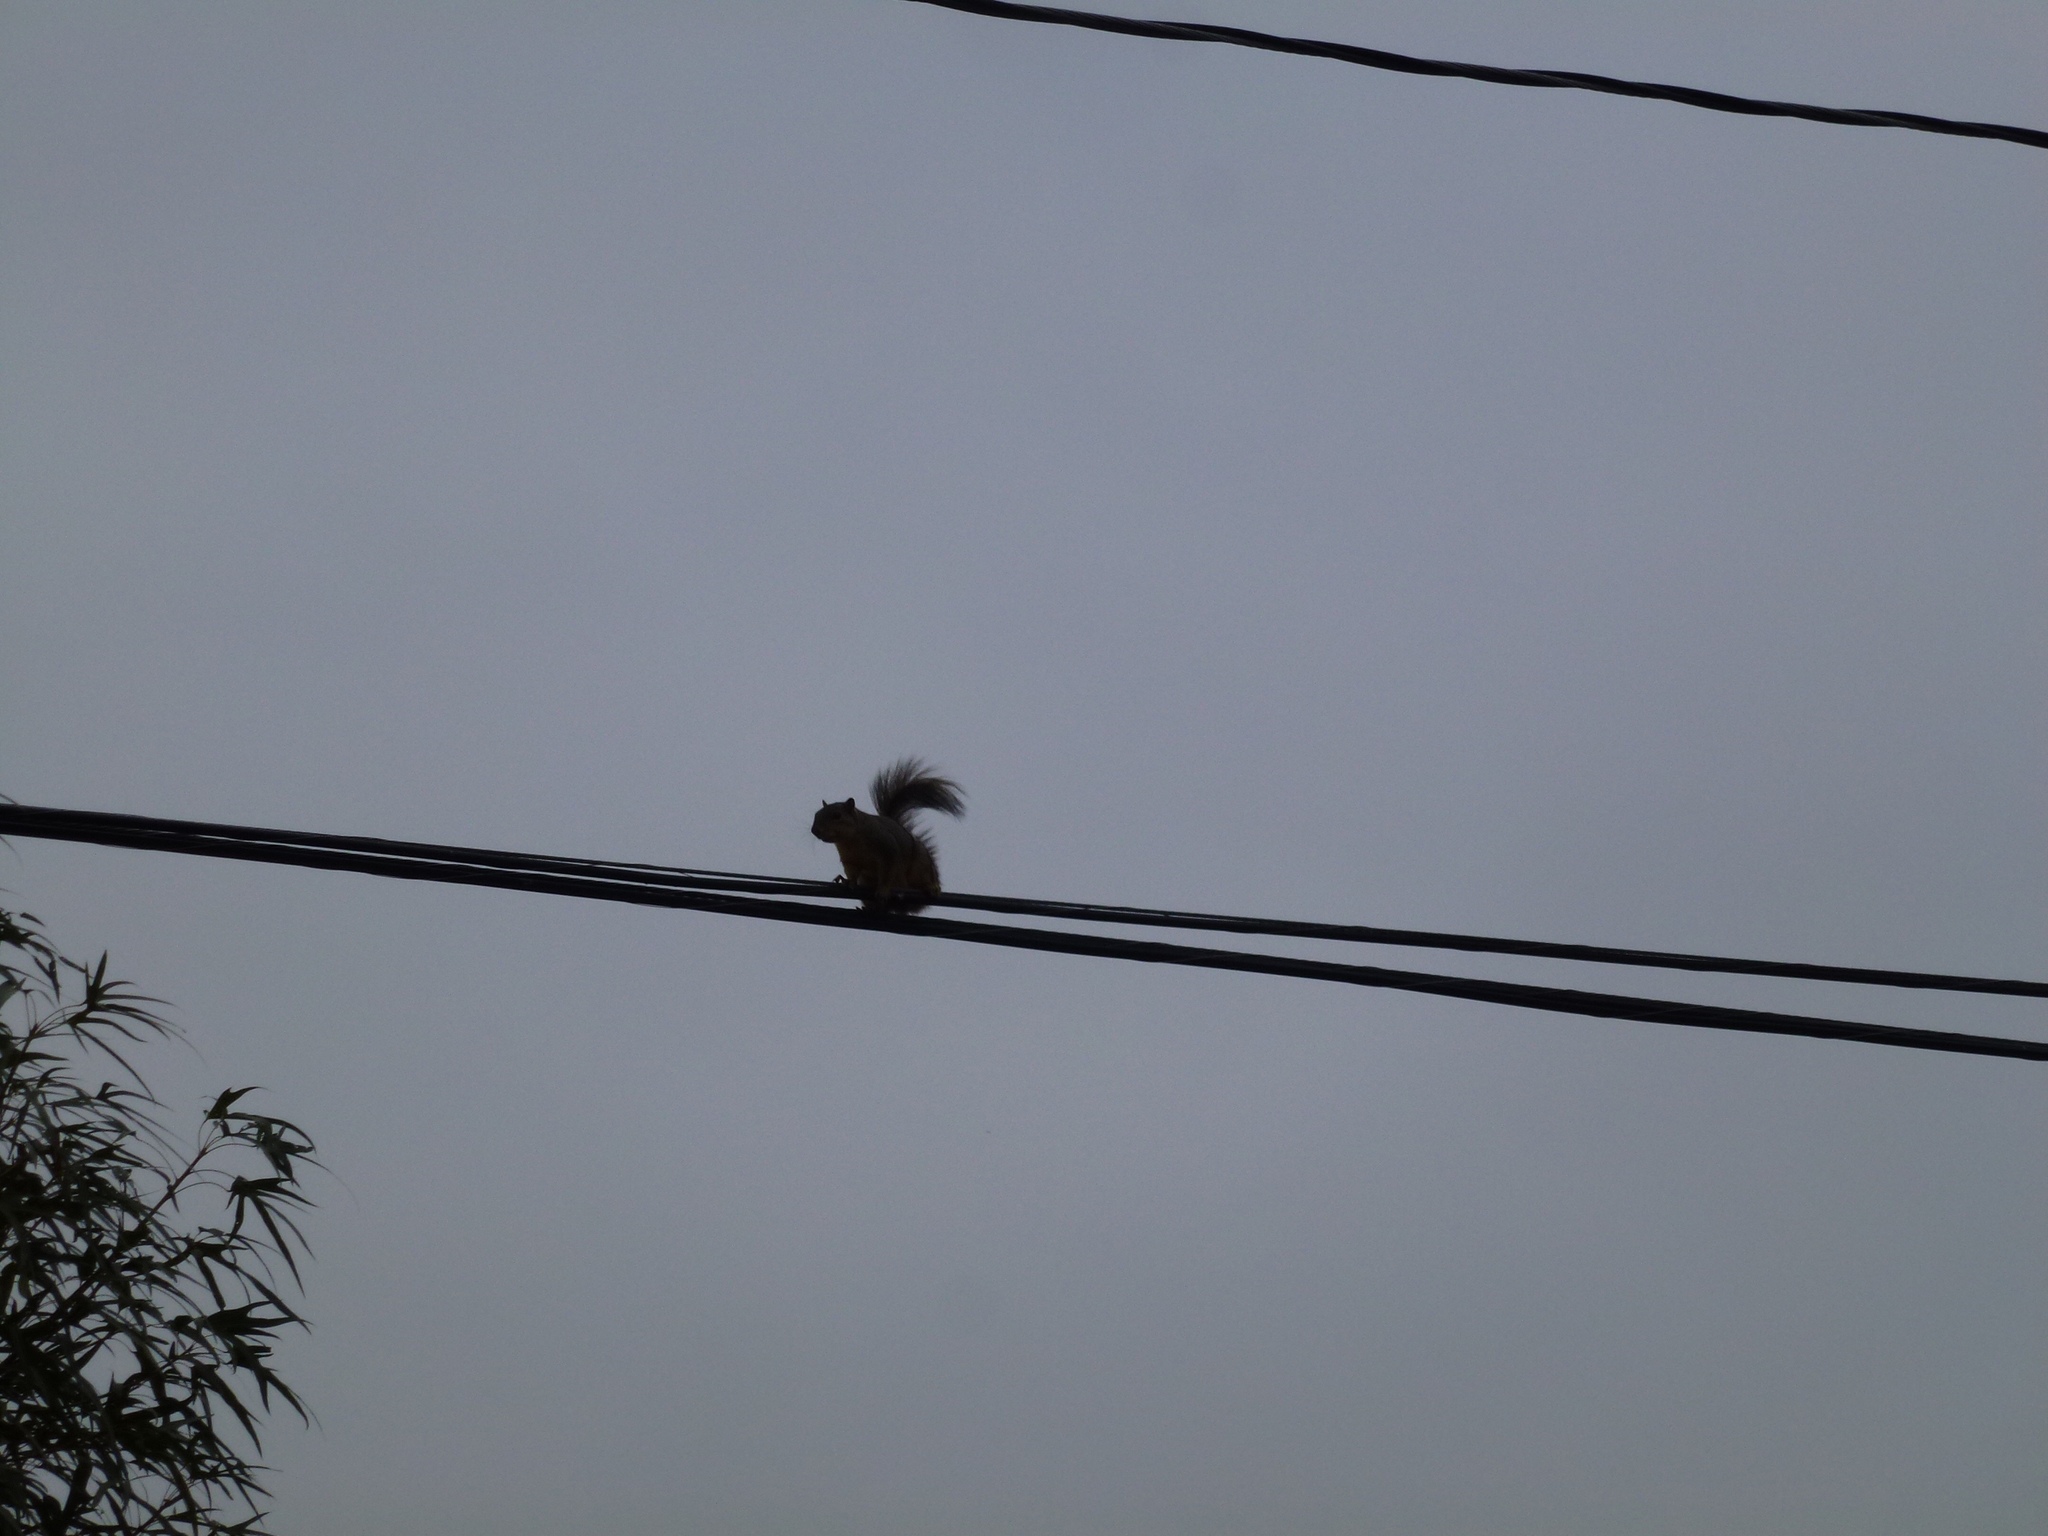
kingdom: Animalia
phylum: Chordata
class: Mammalia
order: Rodentia
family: Sciuridae
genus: Sciurus
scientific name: Sciurus niger
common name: Fox squirrel
